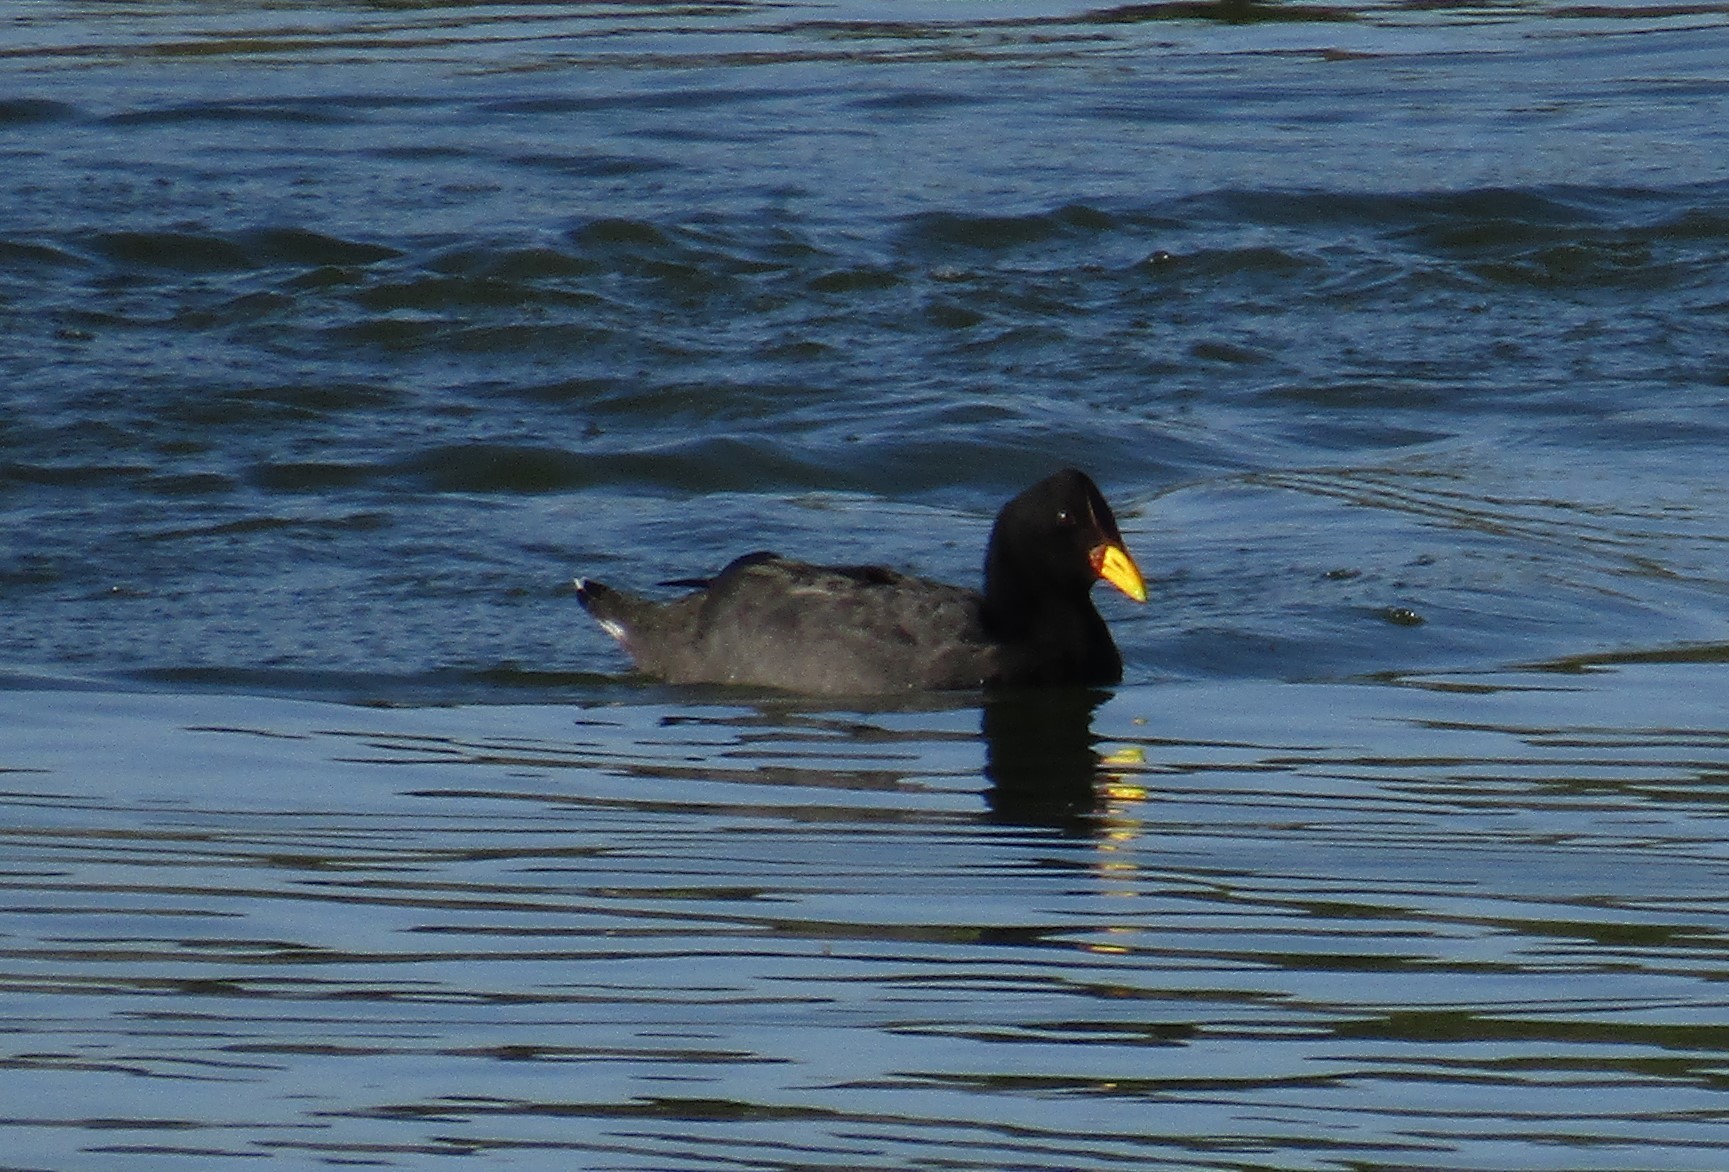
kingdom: Animalia
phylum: Chordata
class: Aves
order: Gruiformes
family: Rallidae
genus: Fulica
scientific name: Fulica rufifrons
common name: Red-fronted coot
